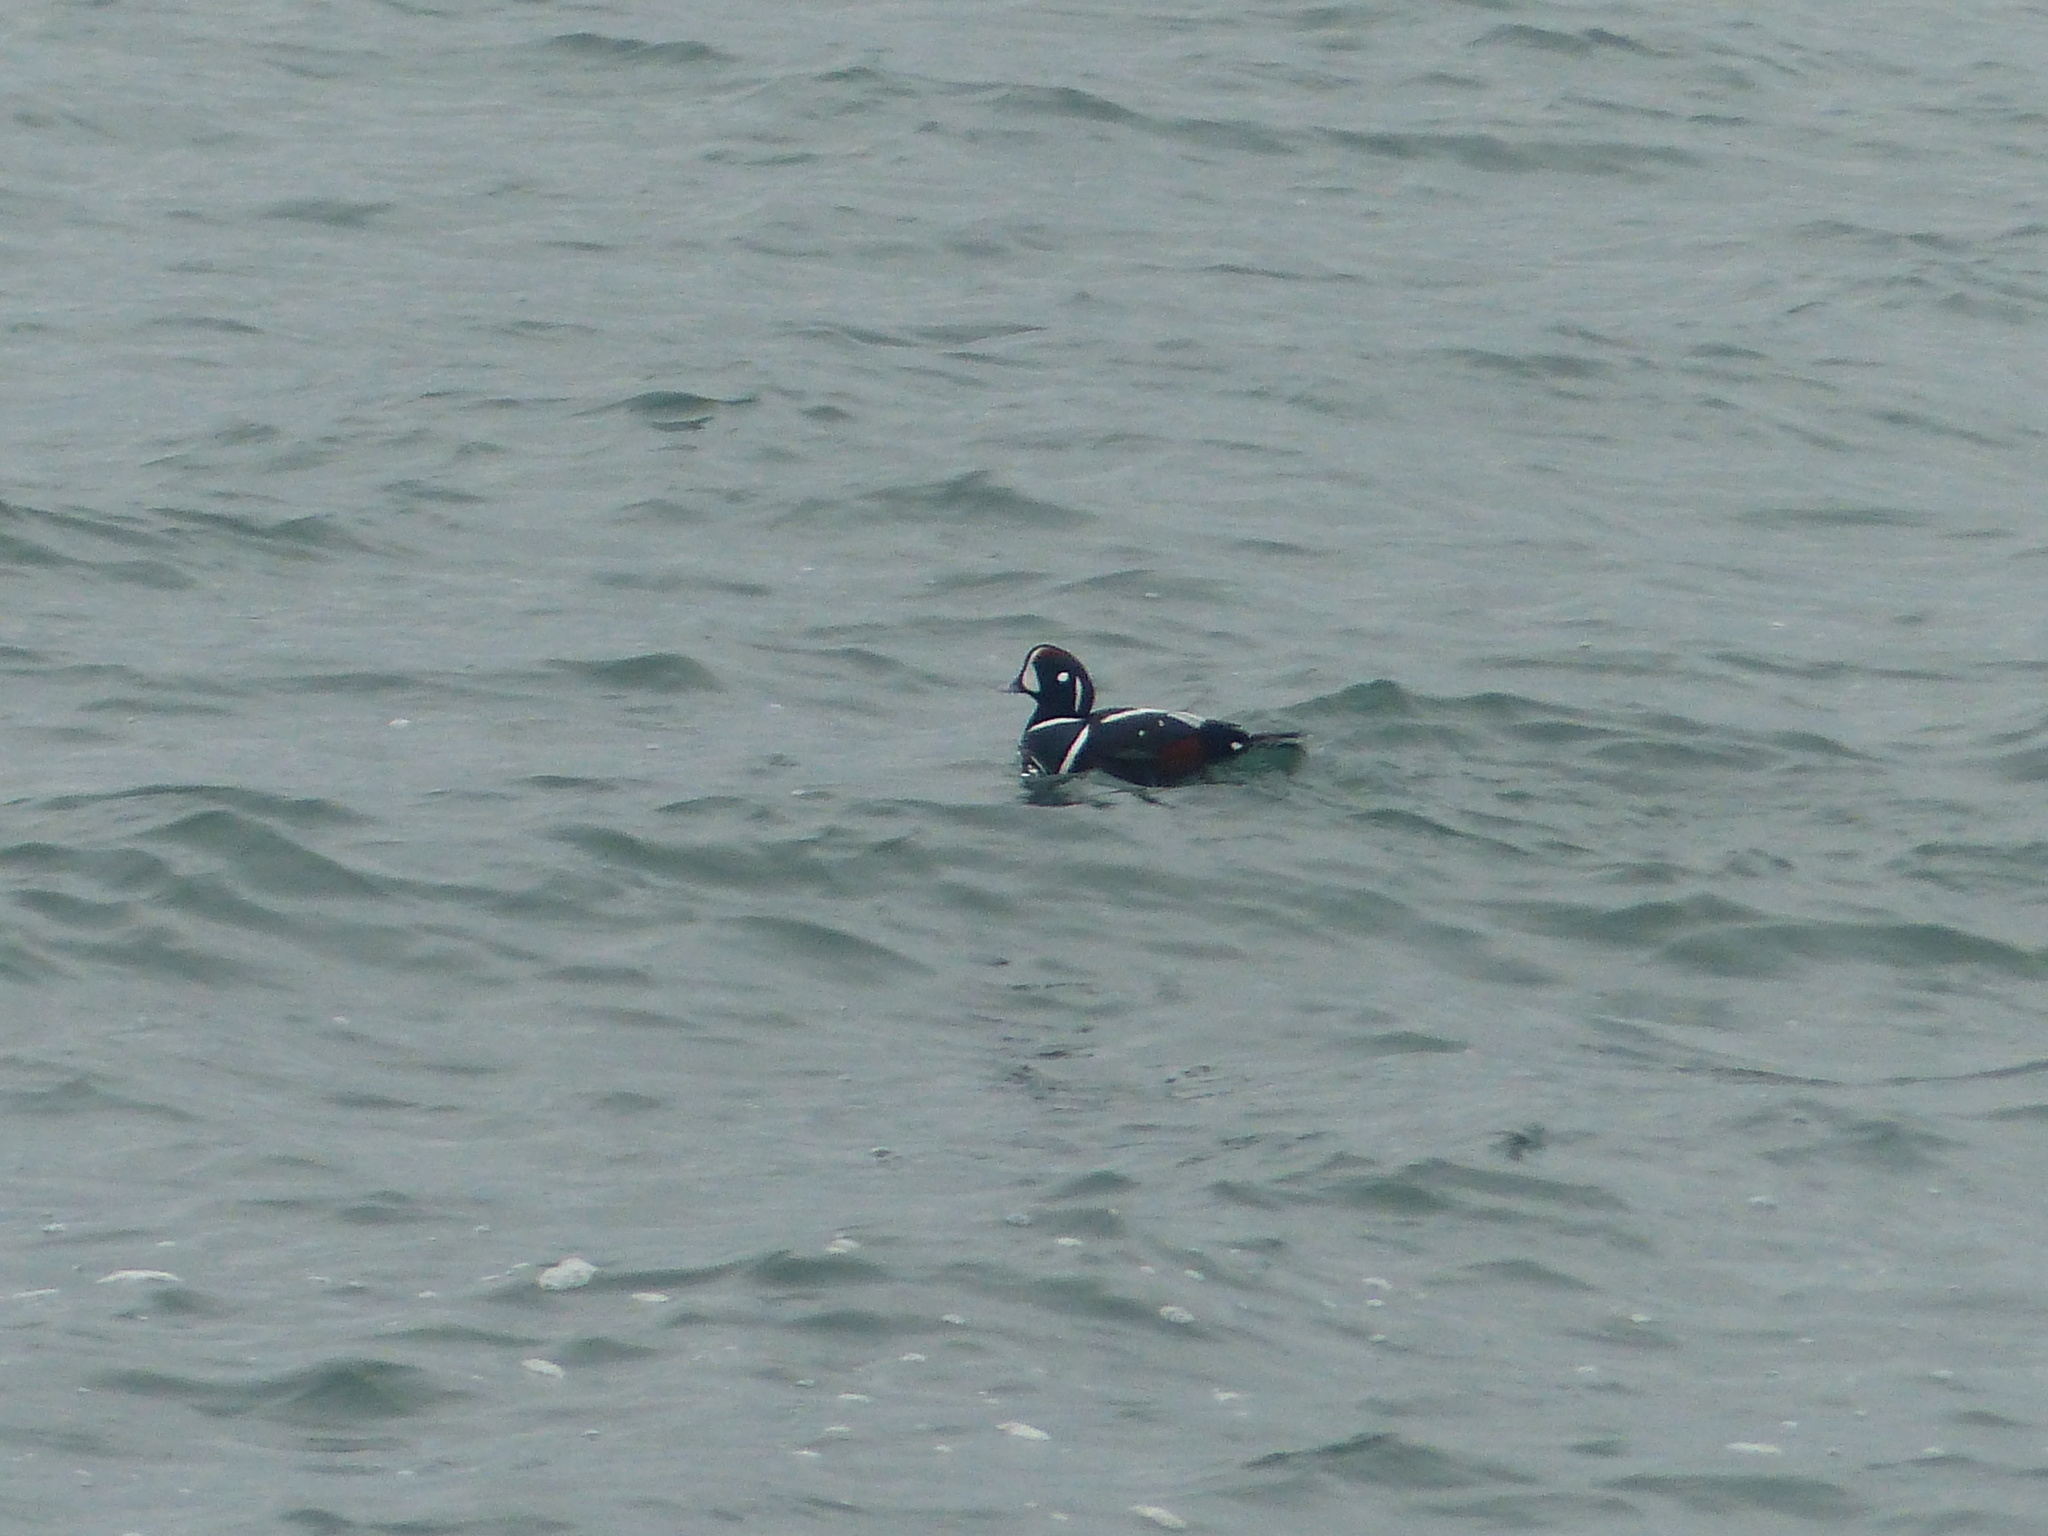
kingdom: Animalia
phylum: Chordata
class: Aves
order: Anseriformes
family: Anatidae
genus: Histrionicus
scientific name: Histrionicus histrionicus
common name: Harlequin duck
